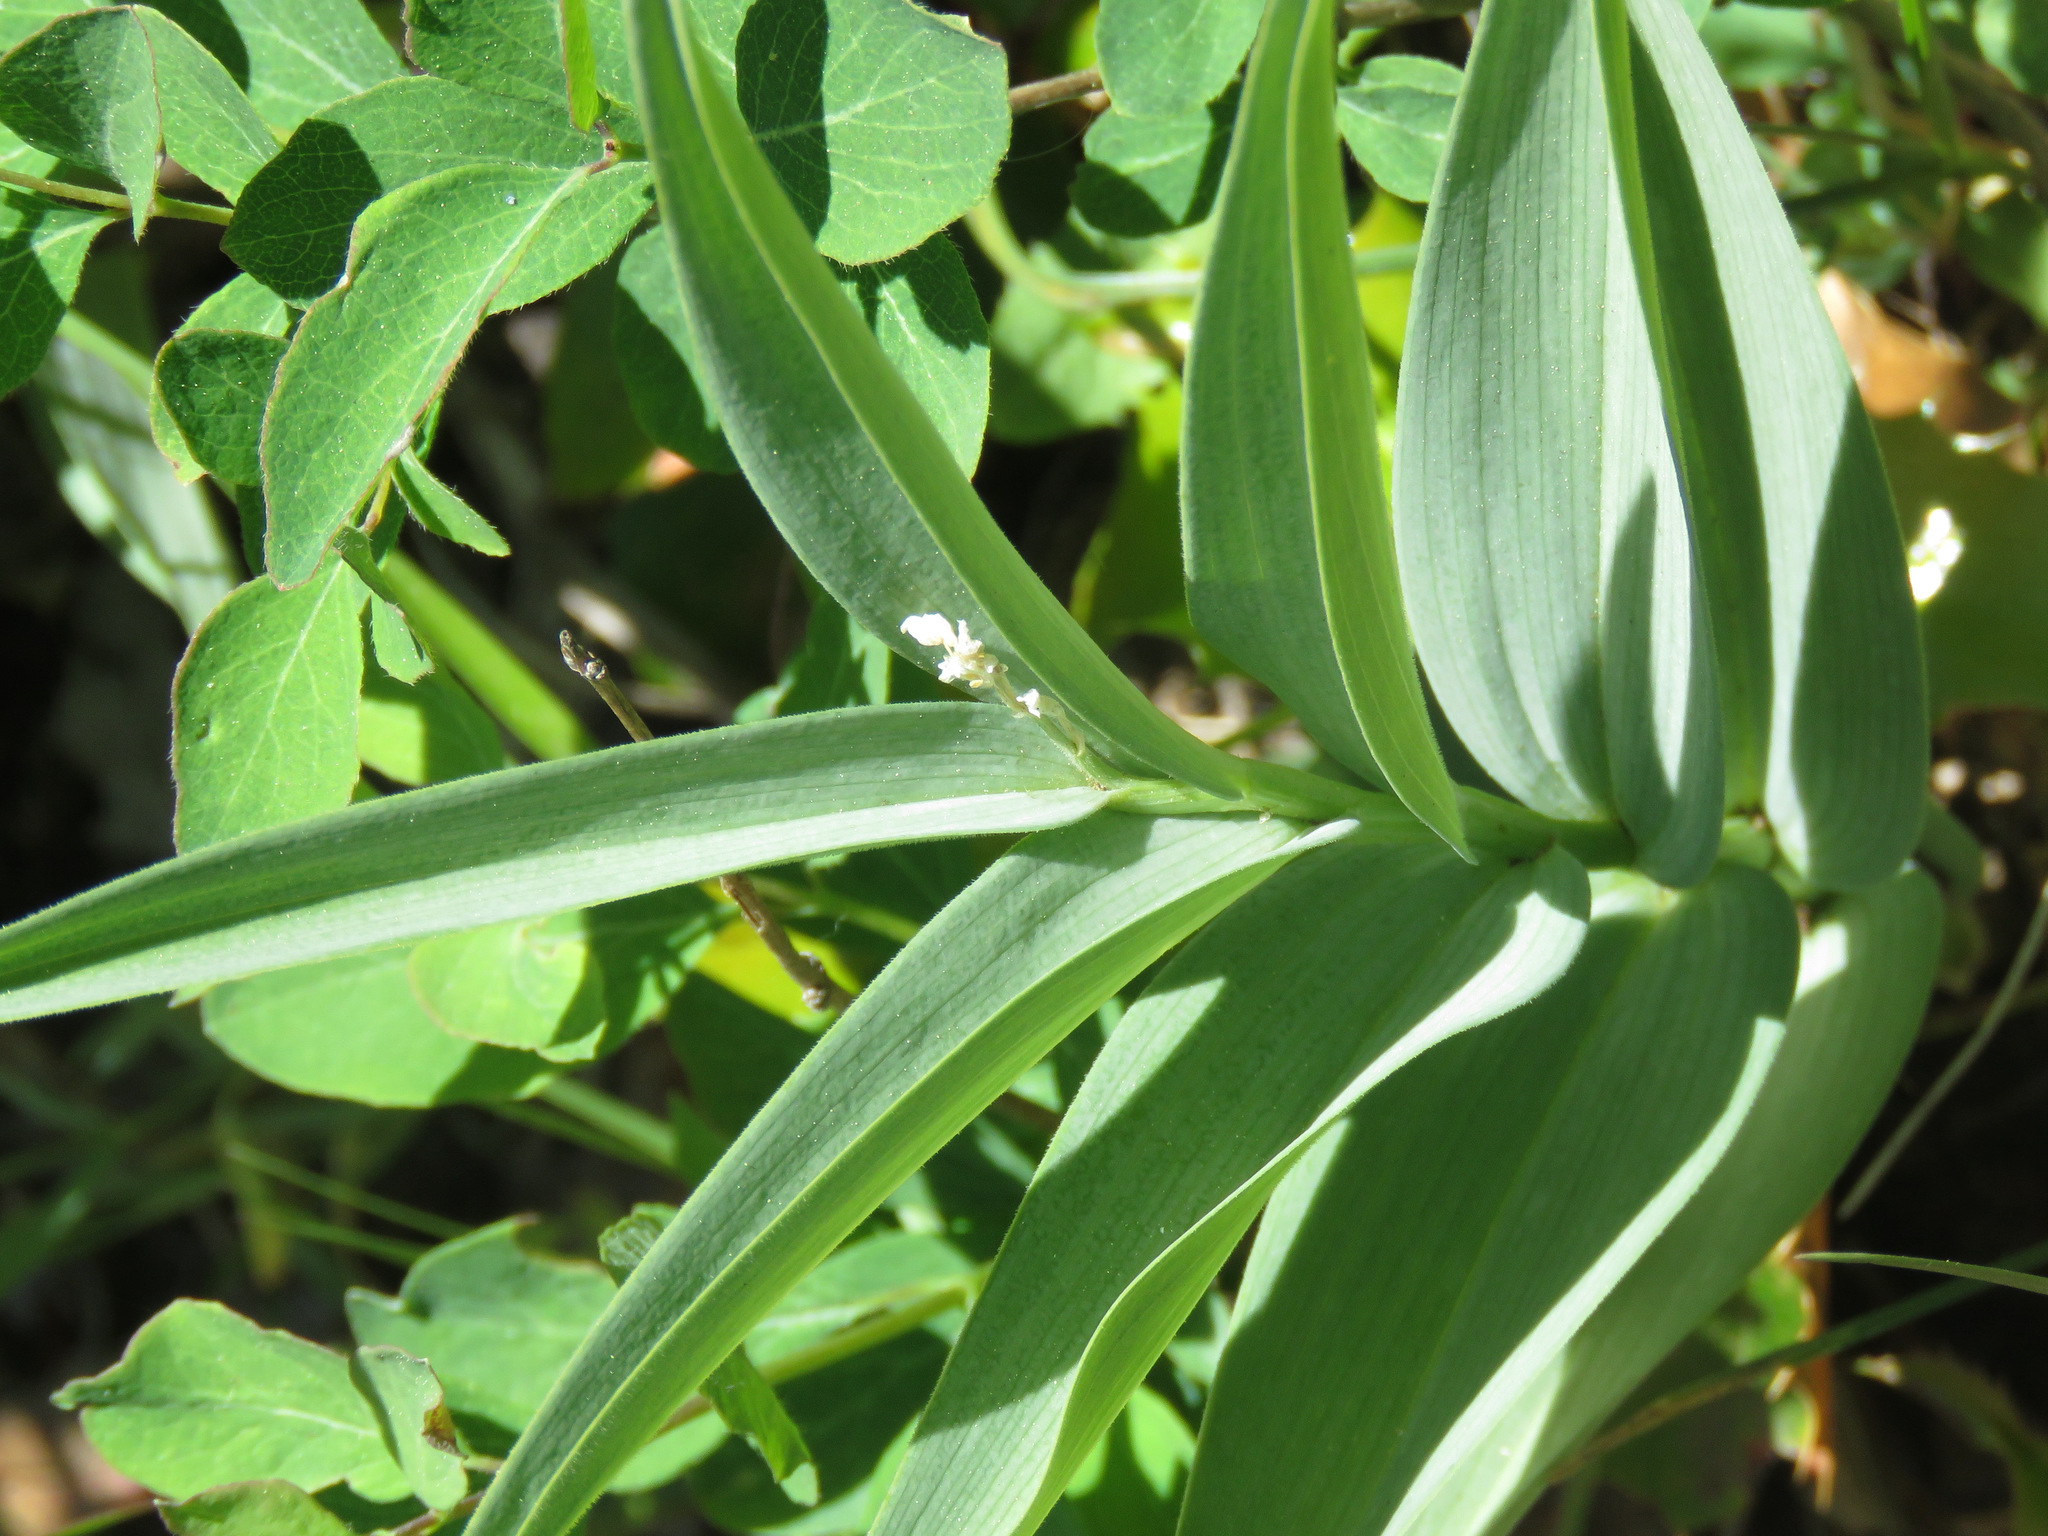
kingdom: Plantae
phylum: Tracheophyta
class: Liliopsida
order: Asparagales
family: Asparagaceae
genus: Maianthemum
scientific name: Maianthemum stellatum
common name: Little false solomon's seal
